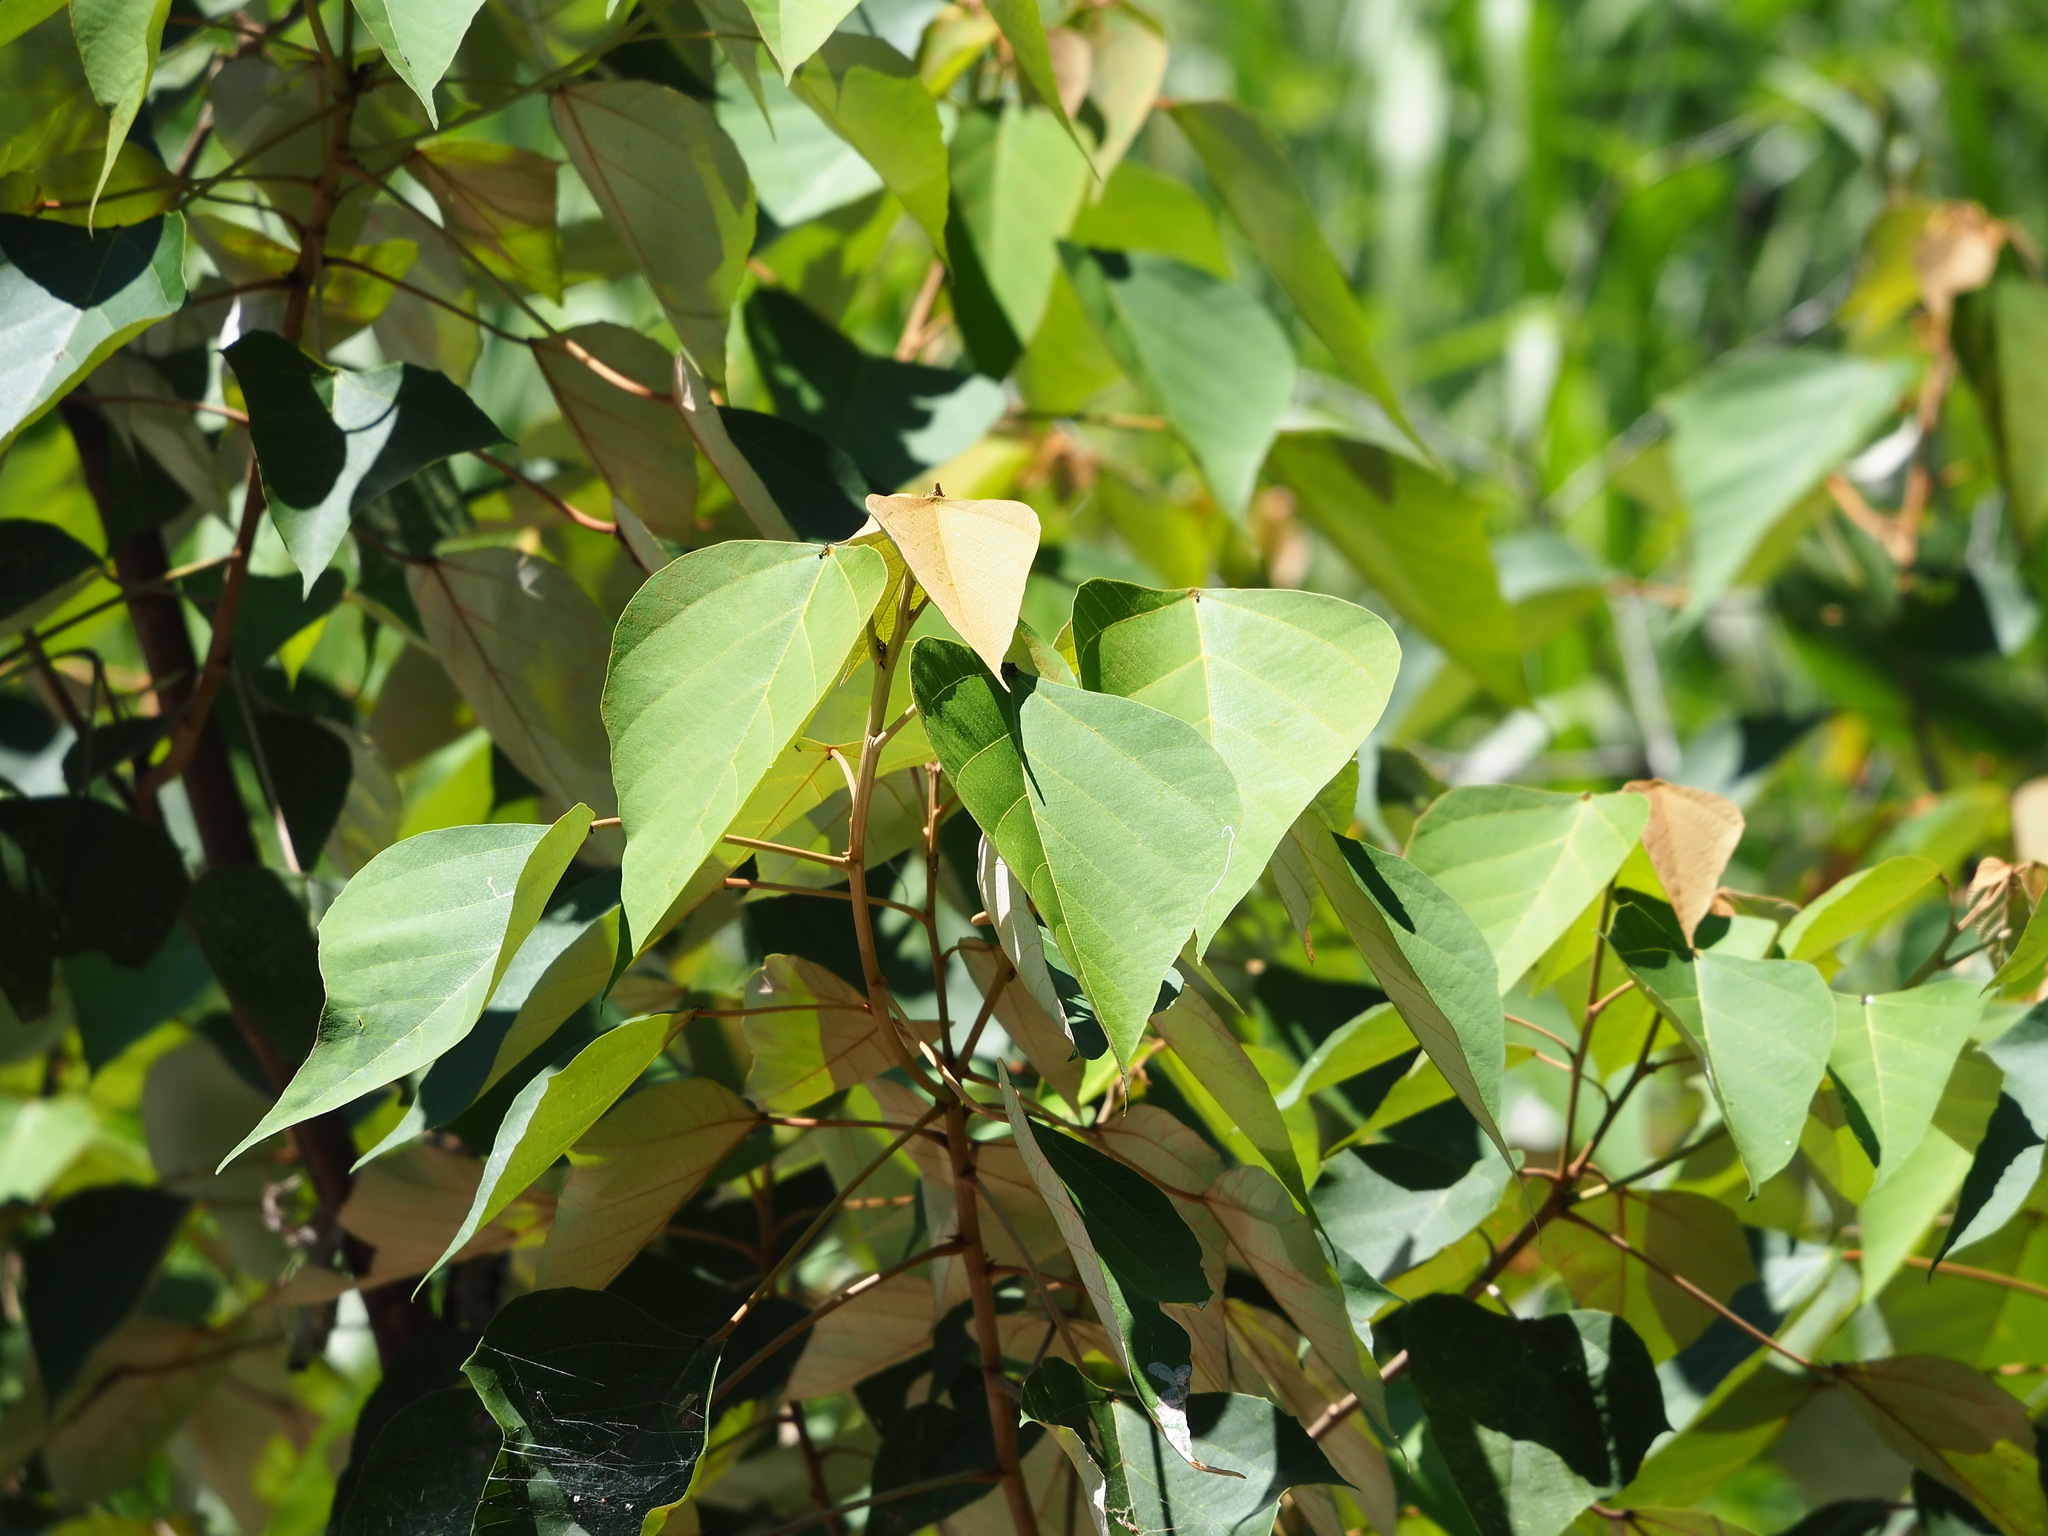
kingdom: Plantae
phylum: Tracheophyta
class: Magnoliopsida
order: Malpighiales
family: Euphorbiaceae
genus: Mallotus
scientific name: Mallotus paniculatus
